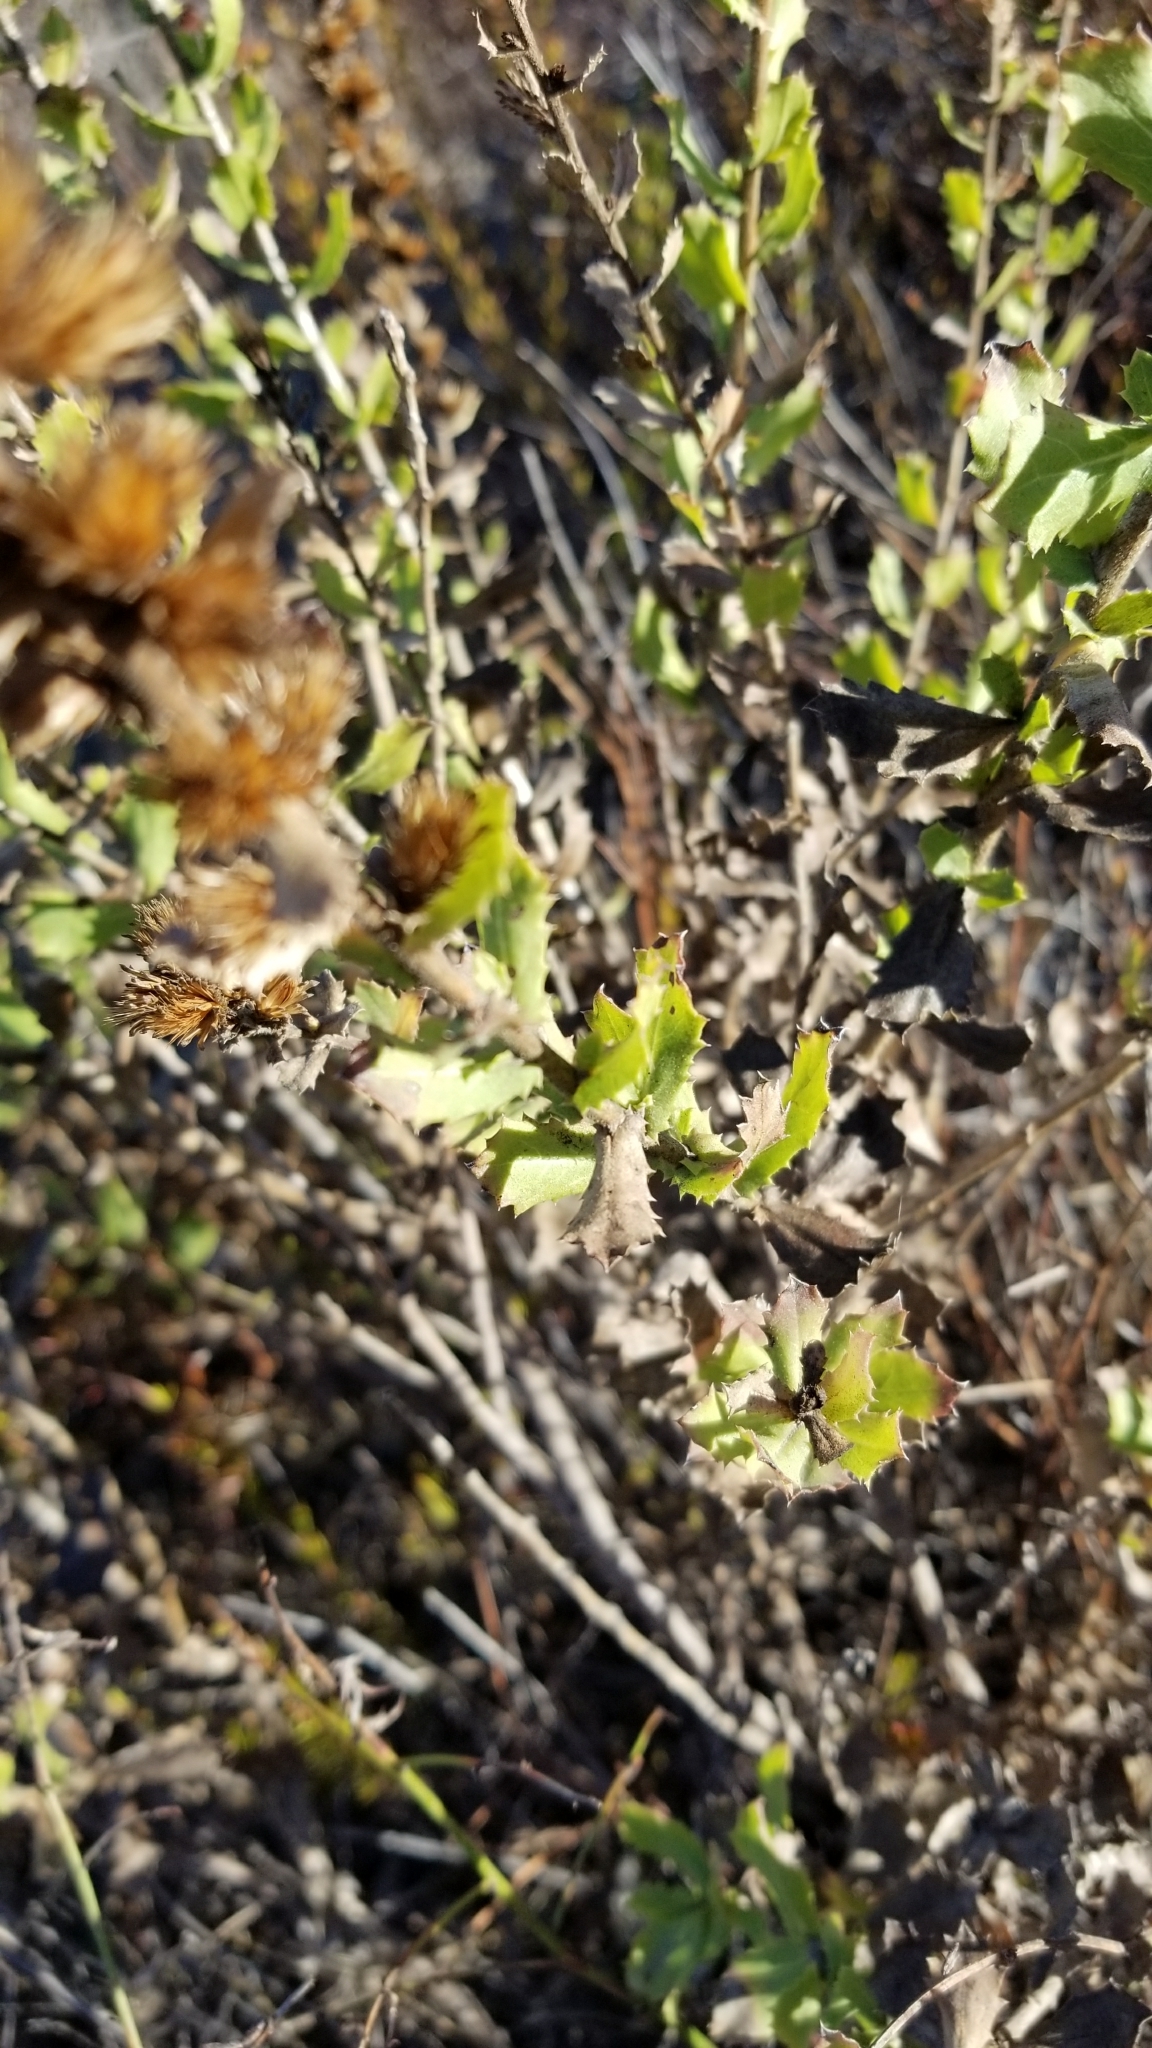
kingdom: Plantae
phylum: Tracheophyta
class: Magnoliopsida
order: Asterales
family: Asteraceae
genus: Hazardia
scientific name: Hazardia squarrosa
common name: Saw-tooth goldenbush
